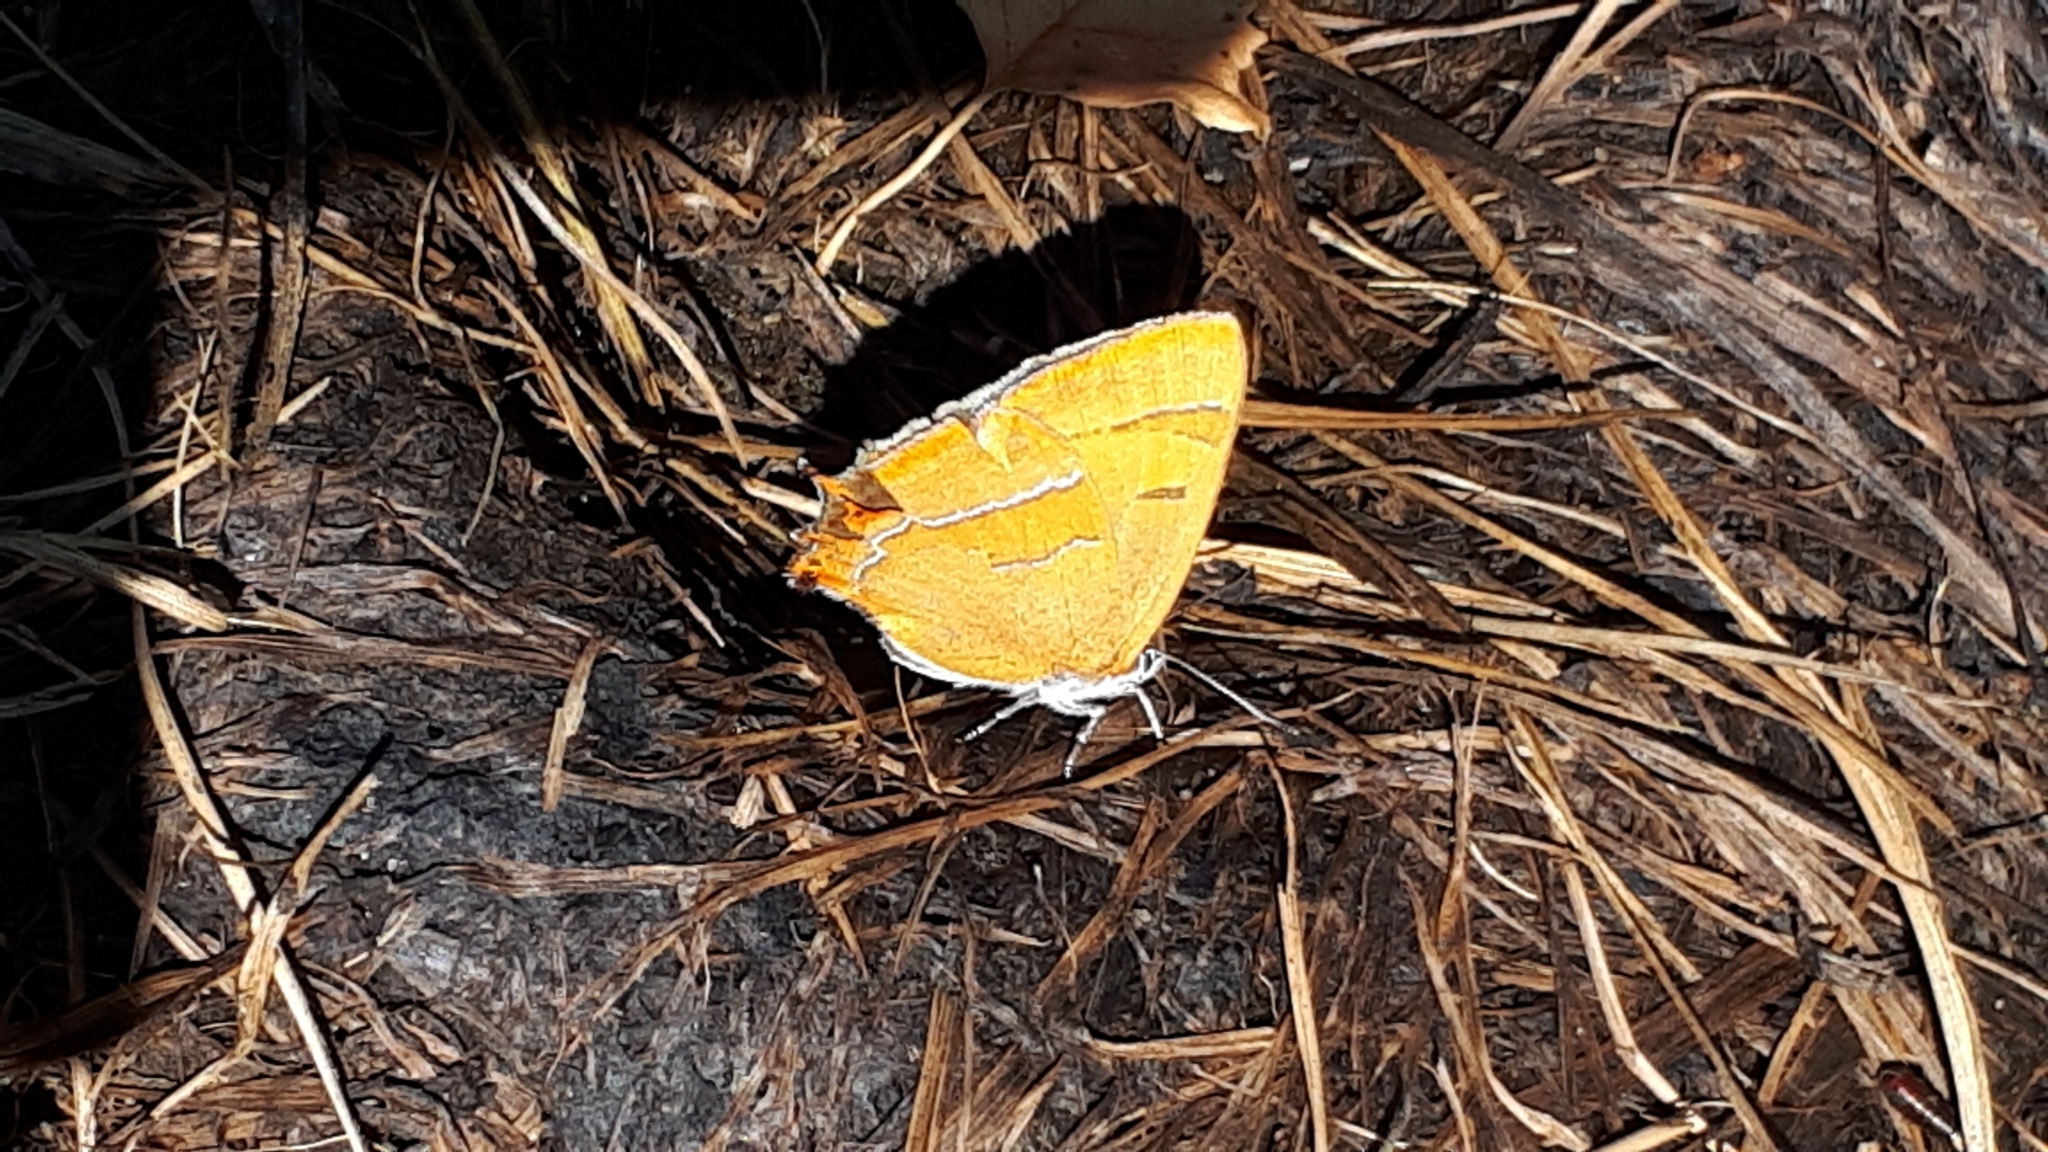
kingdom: Animalia
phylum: Arthropoda
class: Insecta
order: Lepidoptera
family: Lycaenidae
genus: Thecla
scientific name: Thecla betulae
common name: Brown hairstreak
